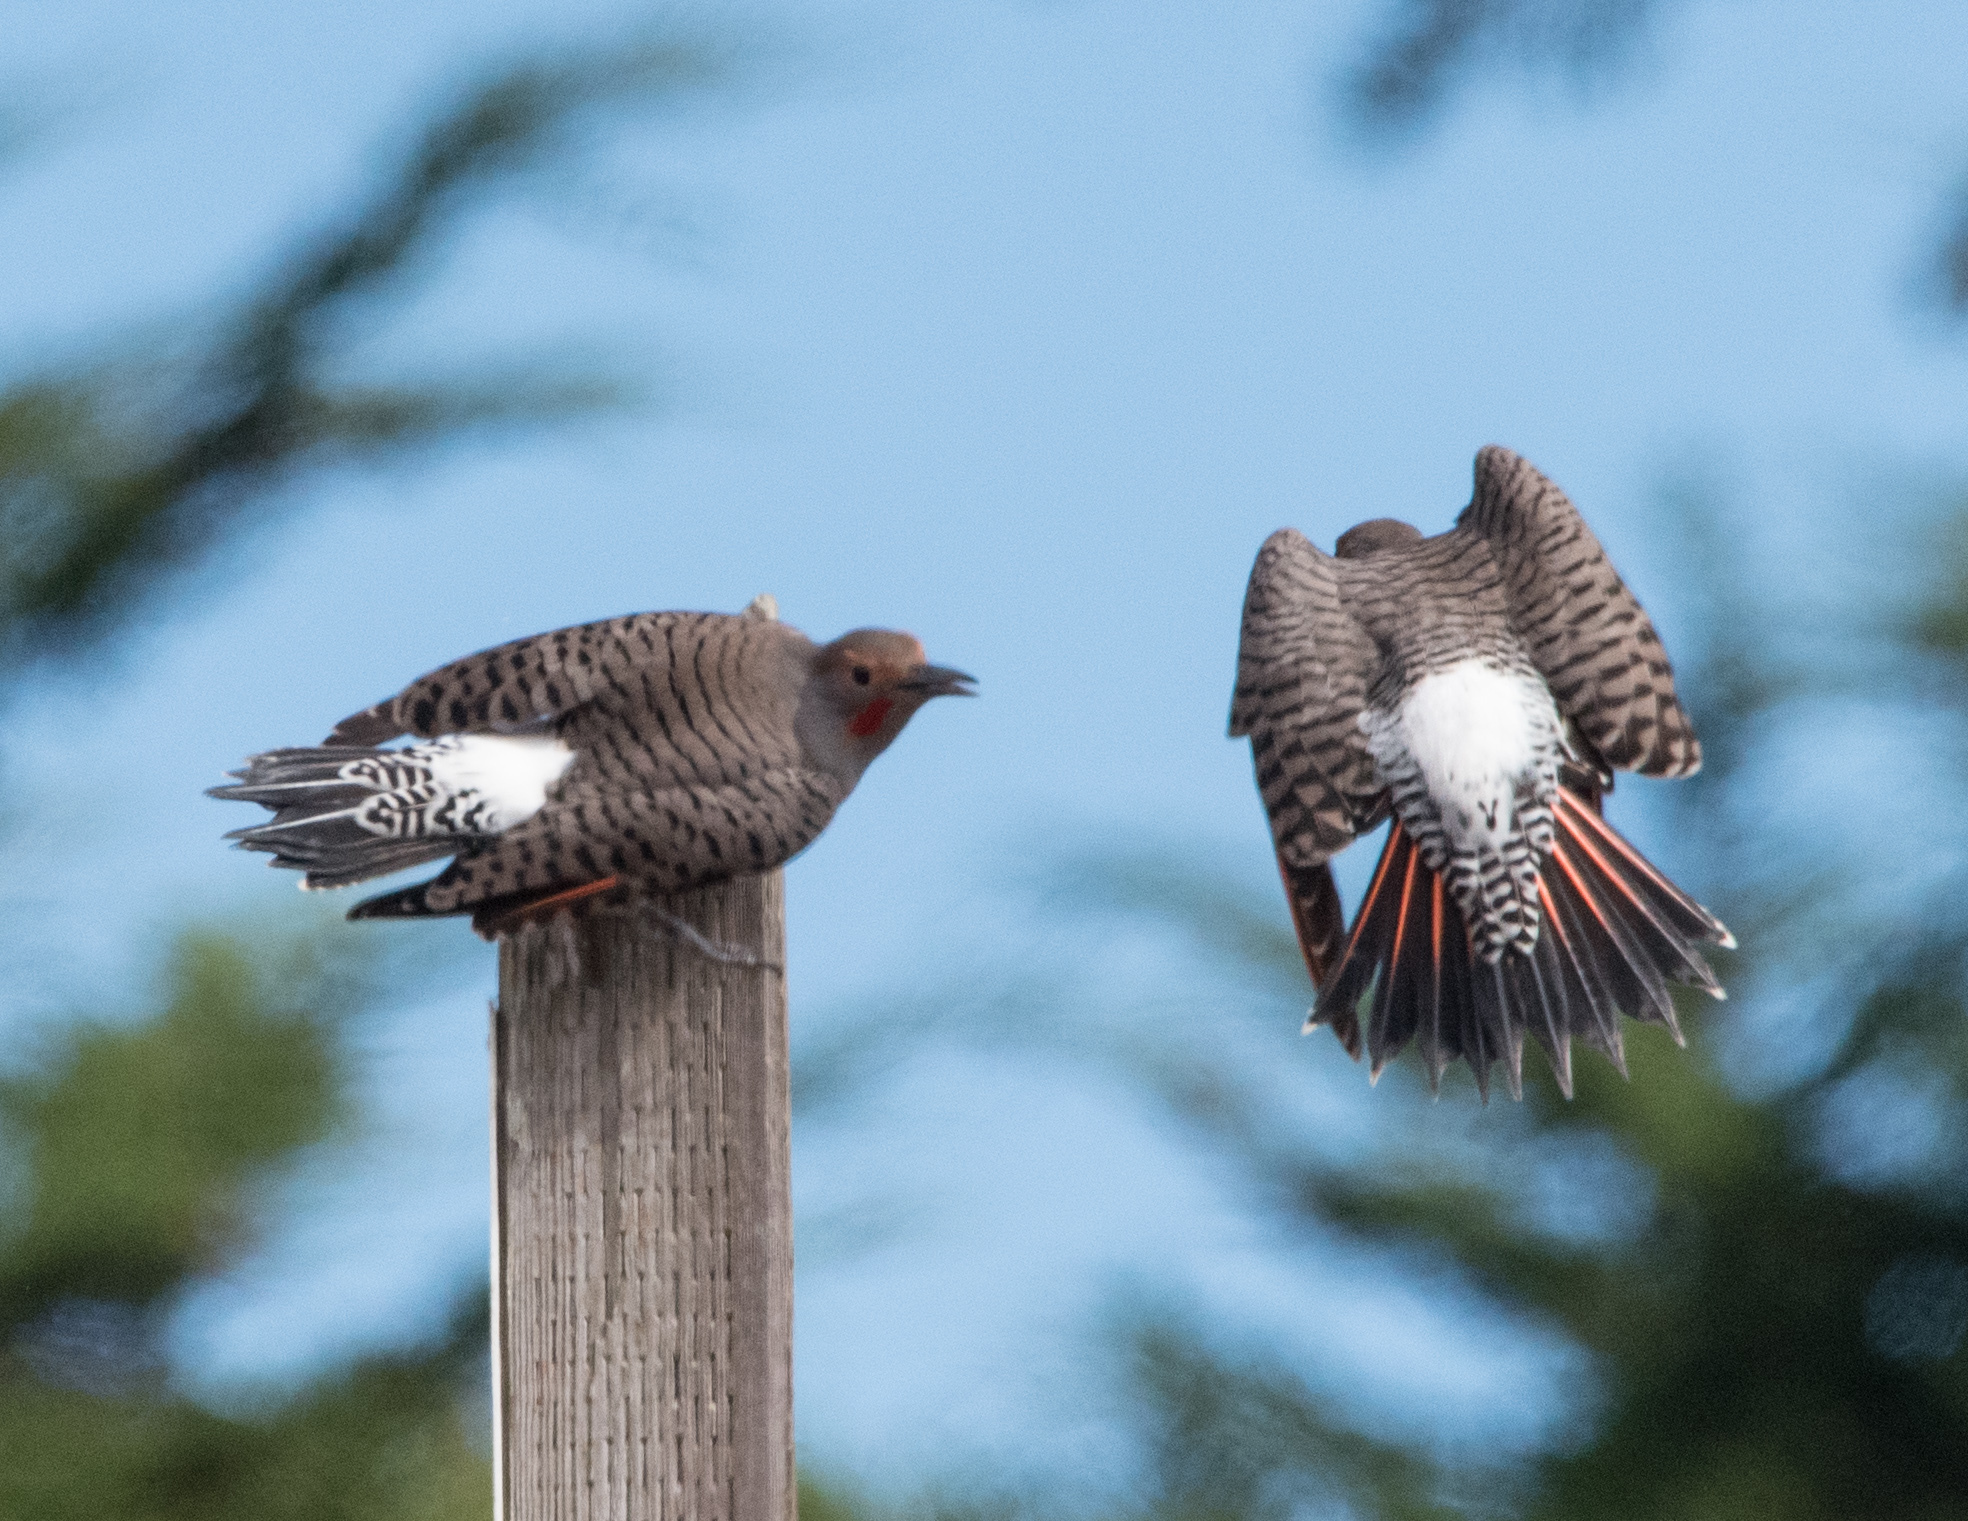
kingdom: Animalia
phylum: Chordata
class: Aves
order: Piciformes
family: Picidae
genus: Colaptes
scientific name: Colaptes auratus
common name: Northern flicker
